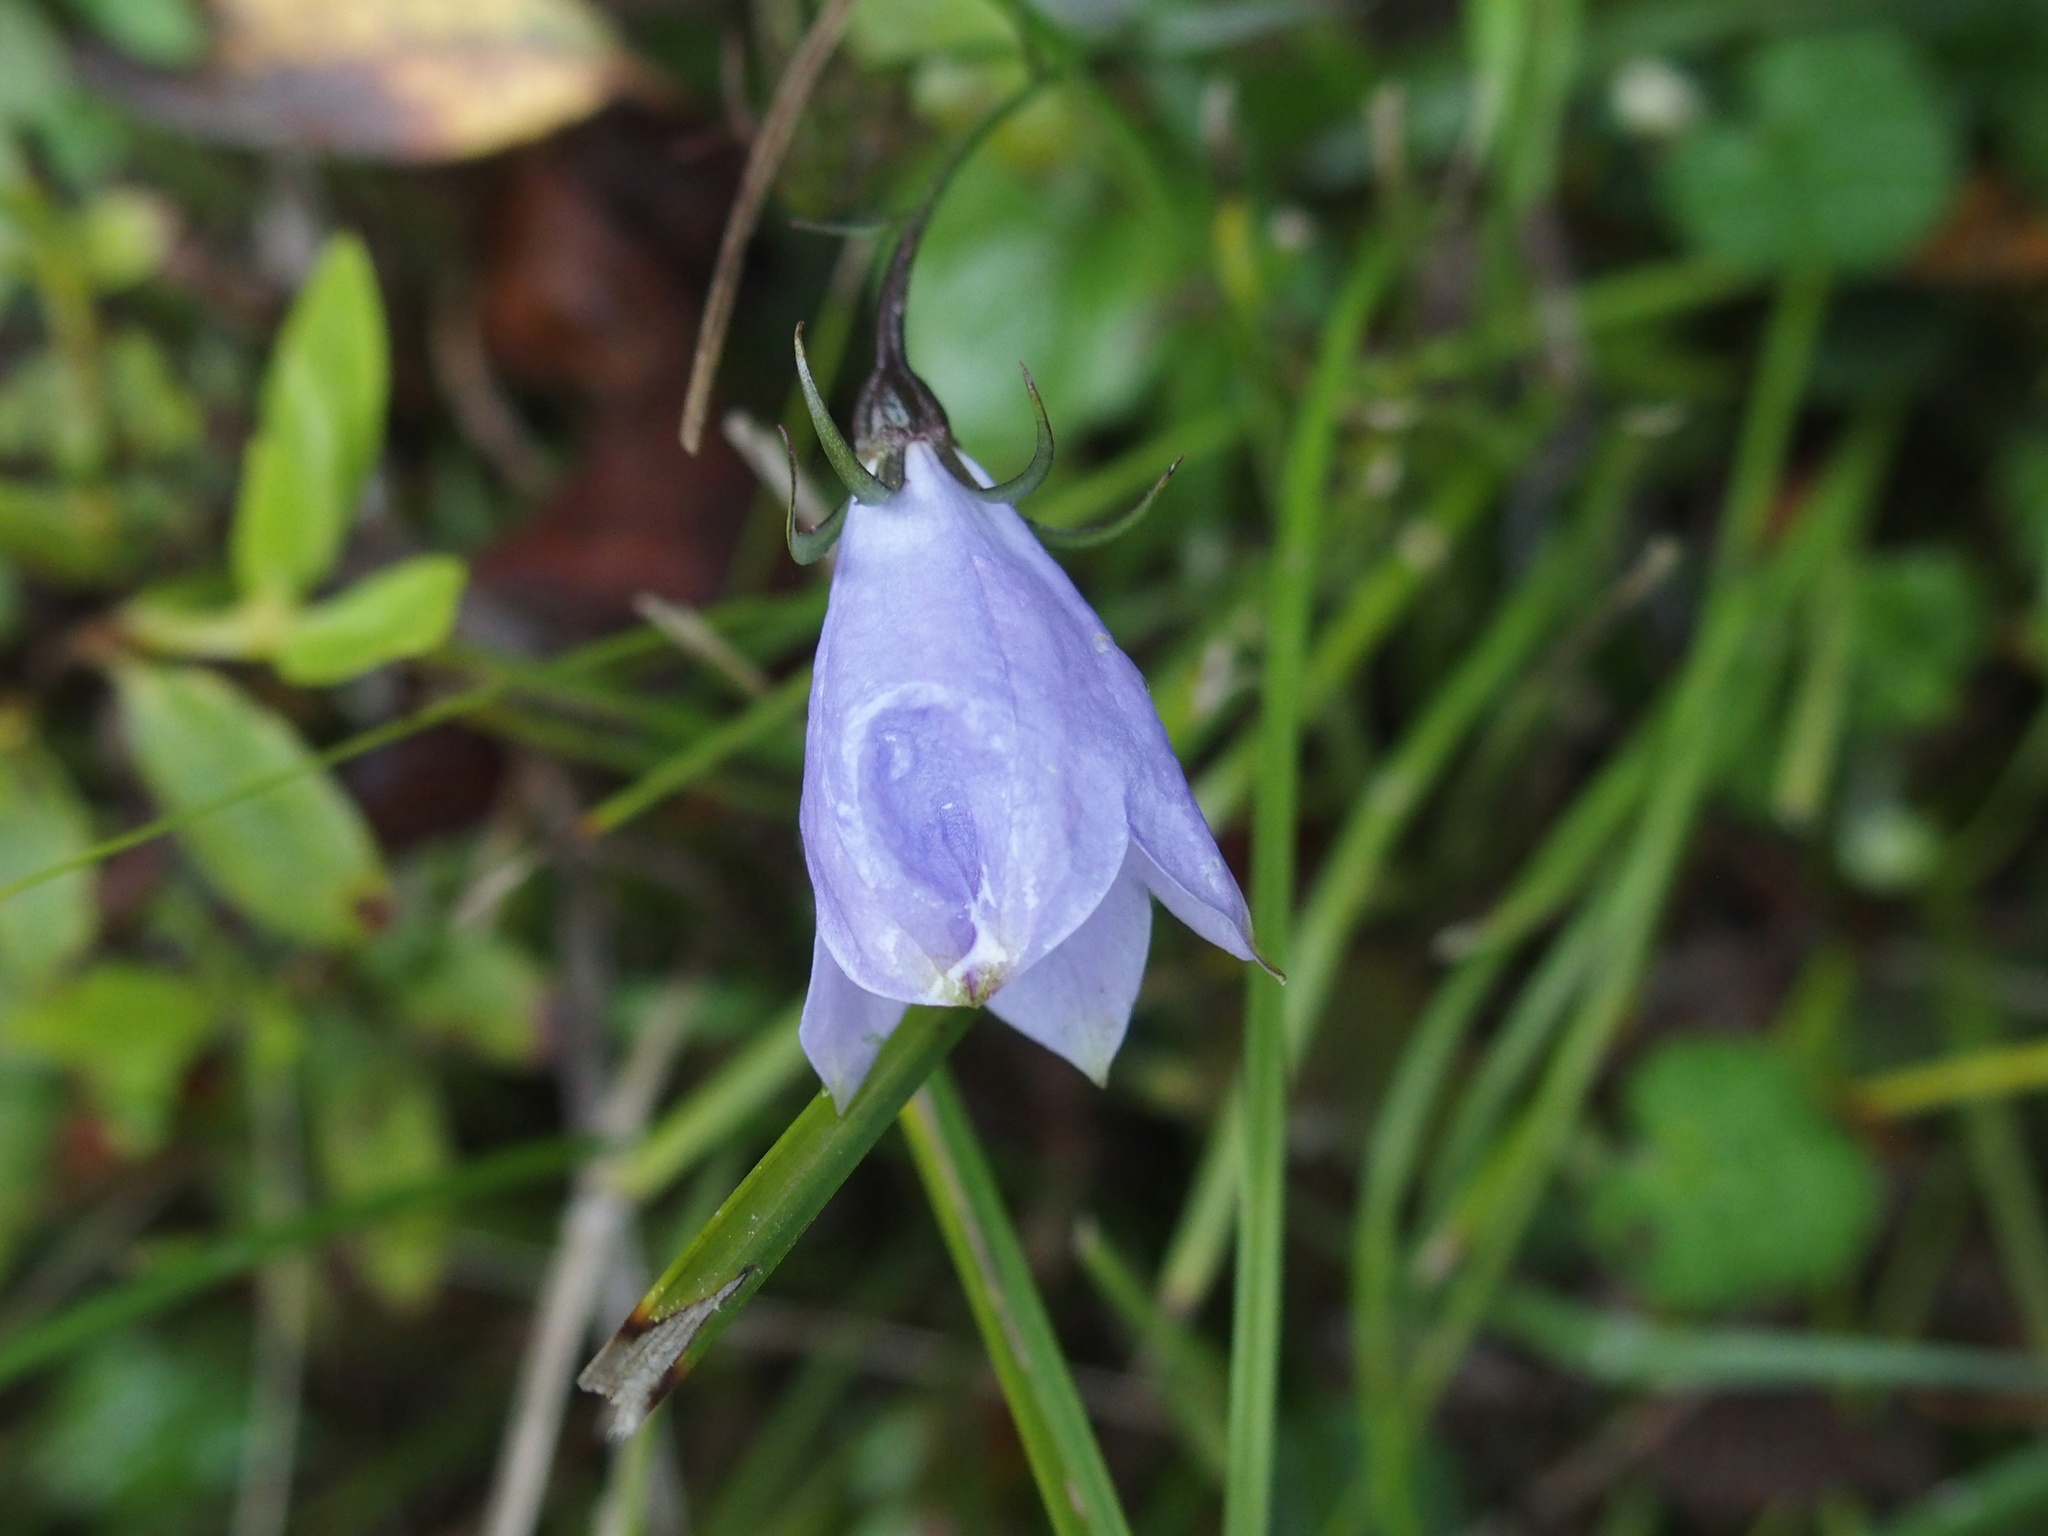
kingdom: Plantae
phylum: Tracheophyta
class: Magnoliopsida
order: Asterales
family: Campanulaceae
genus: Adenophora
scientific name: Adenophora morrisonensis
